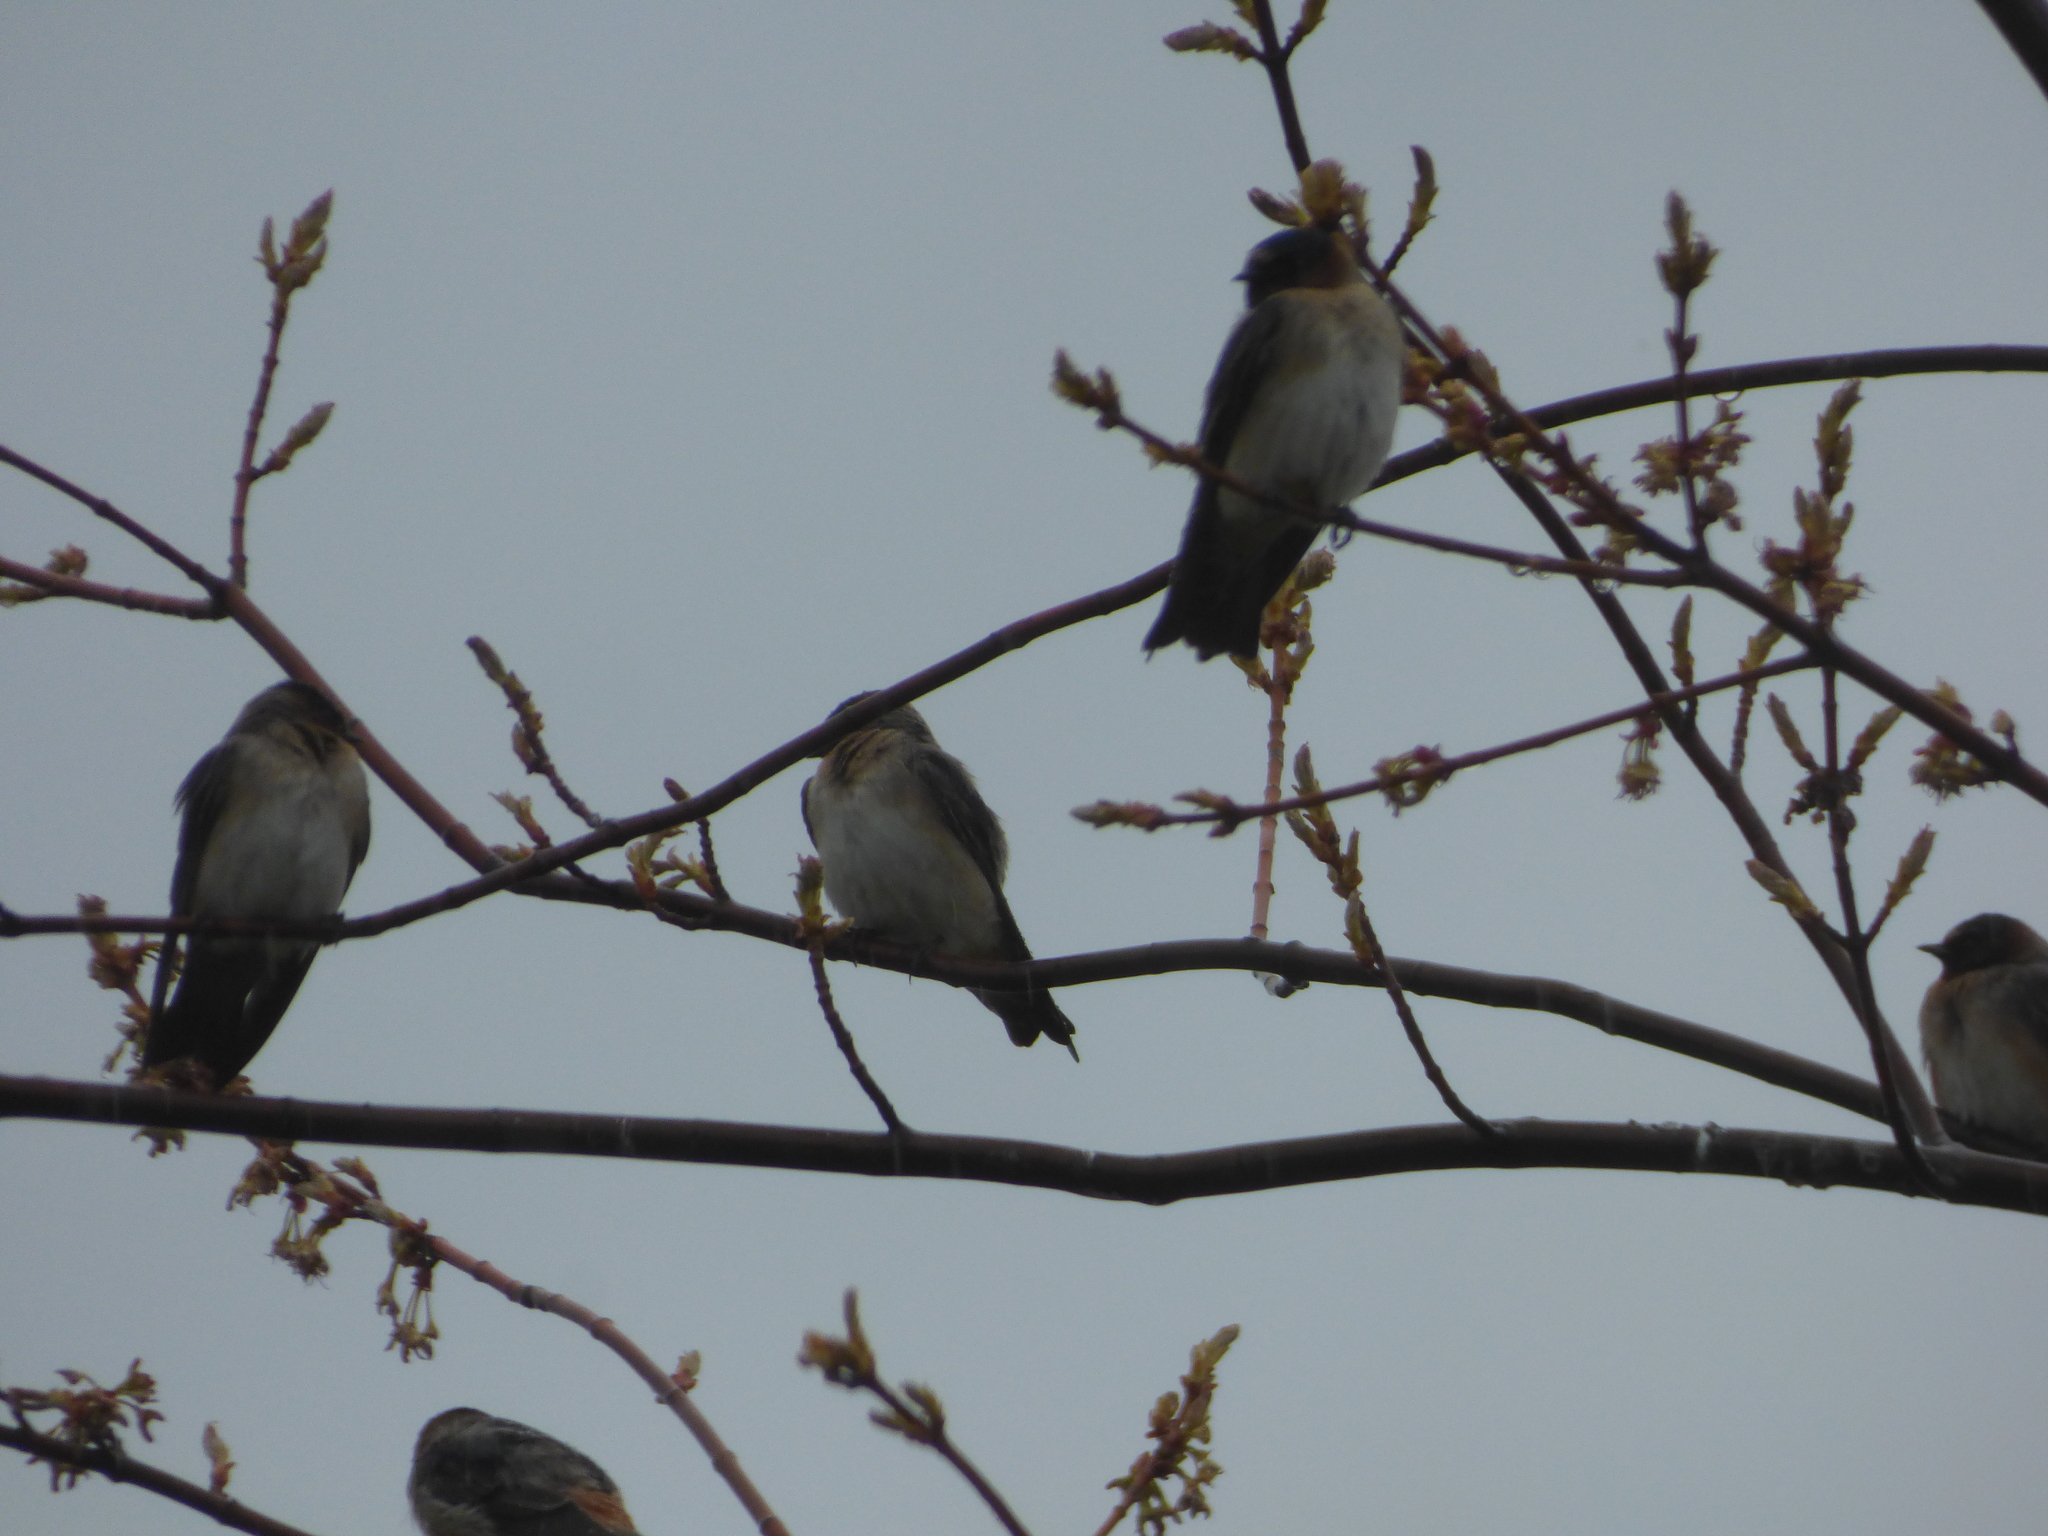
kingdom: Animalia
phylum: Chordata
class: Aves
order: Passeriformes
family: Hirundinidae
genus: Petrochelidon
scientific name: Petrochelidon pyrrhonota
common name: American cliff swallow
